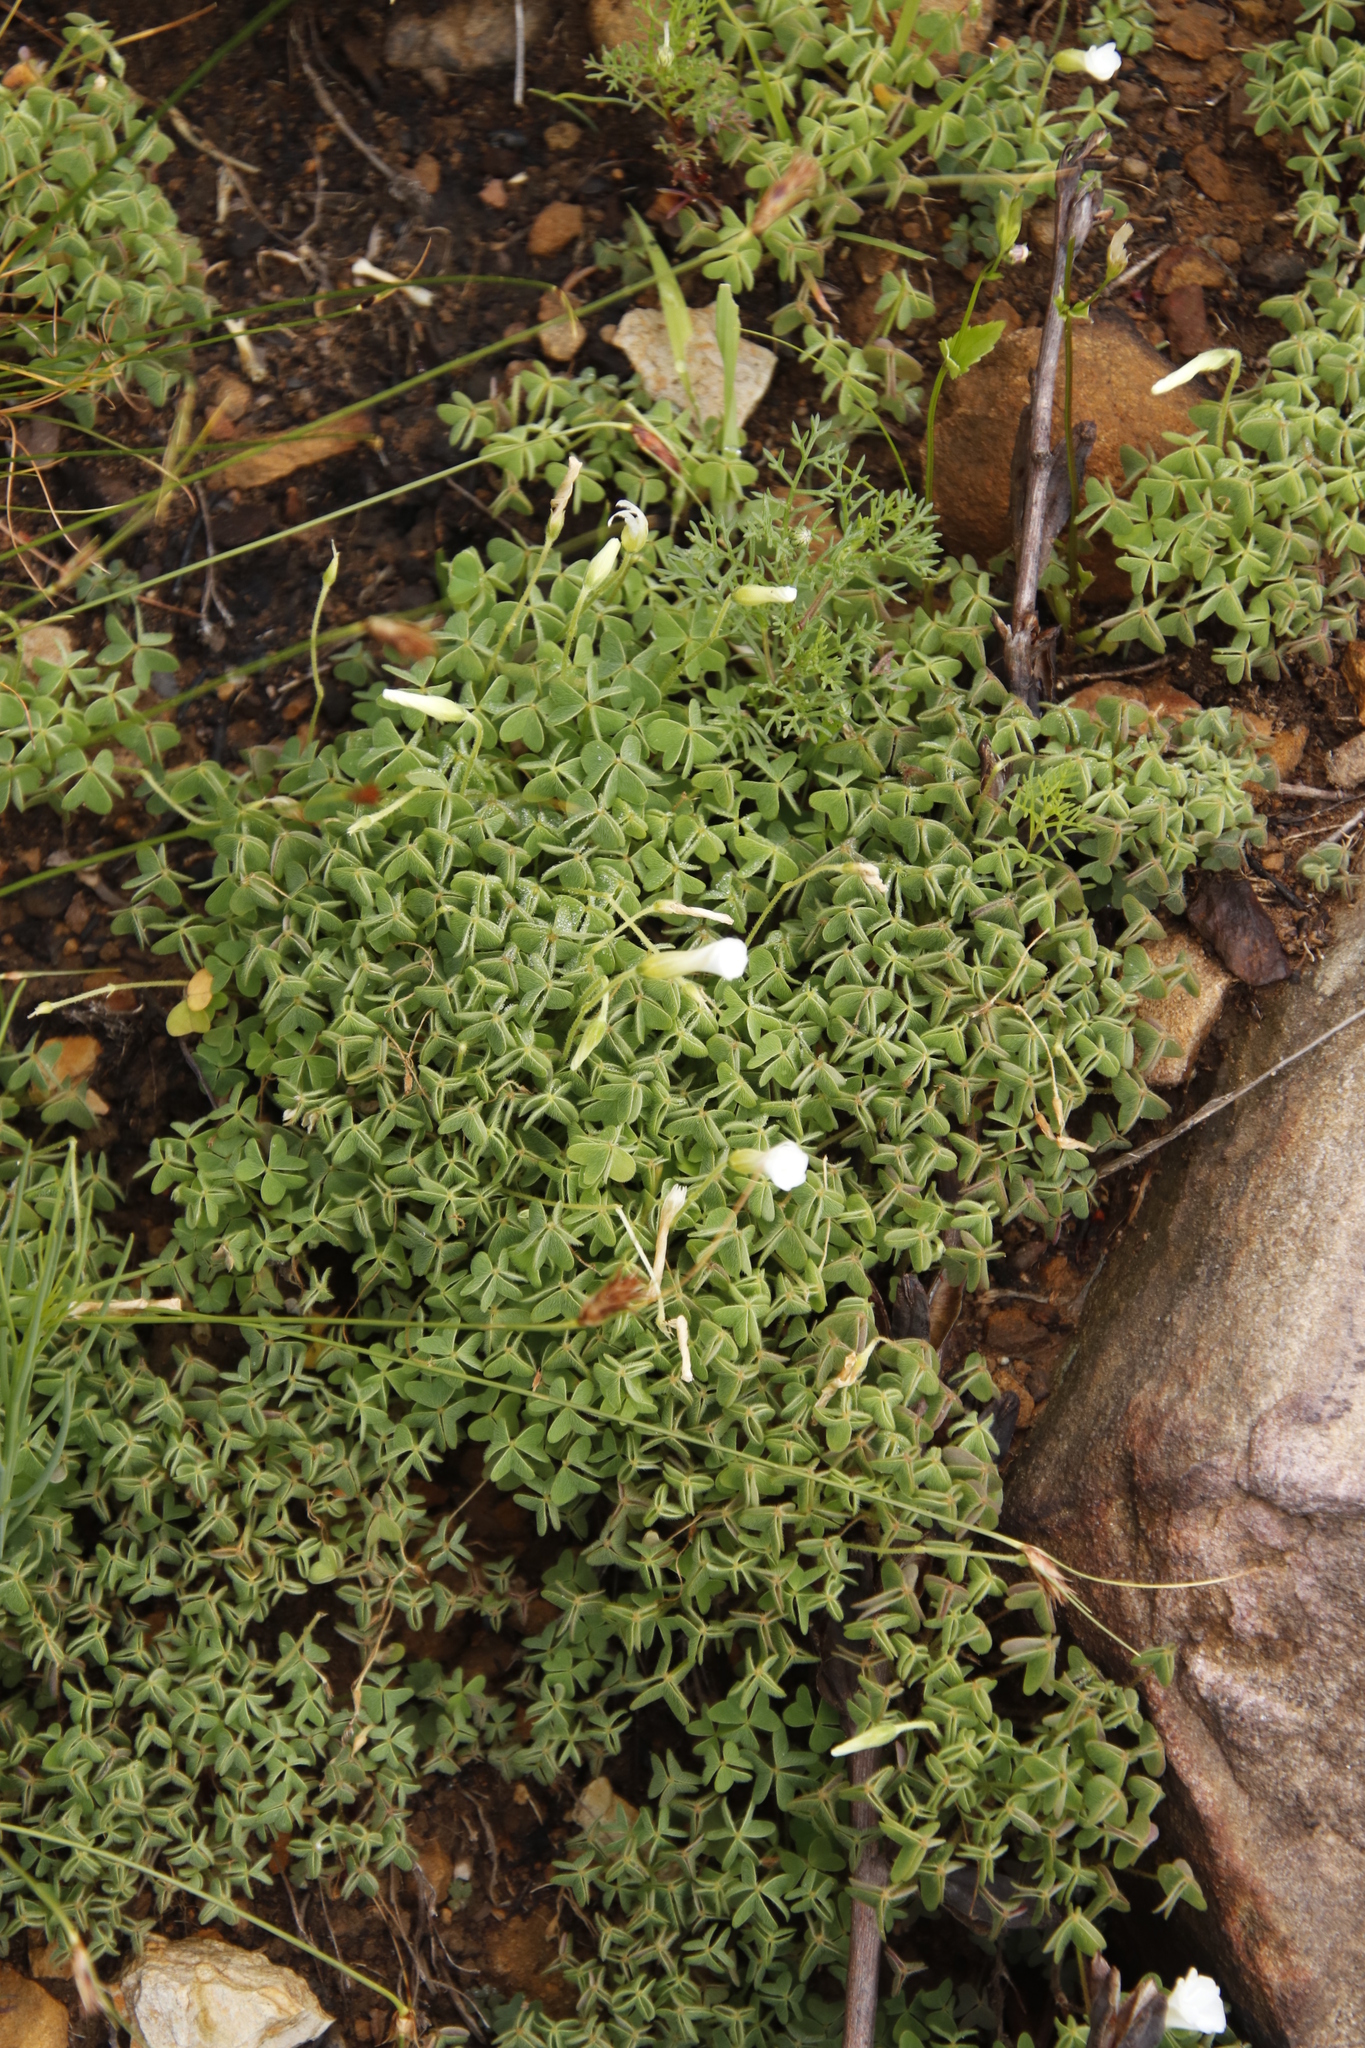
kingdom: Plantae
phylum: Tracheophyta
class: Magnoliopsida
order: Oxalidales
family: Oxalidaceae
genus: Oxalis
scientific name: Oxalis lanata
